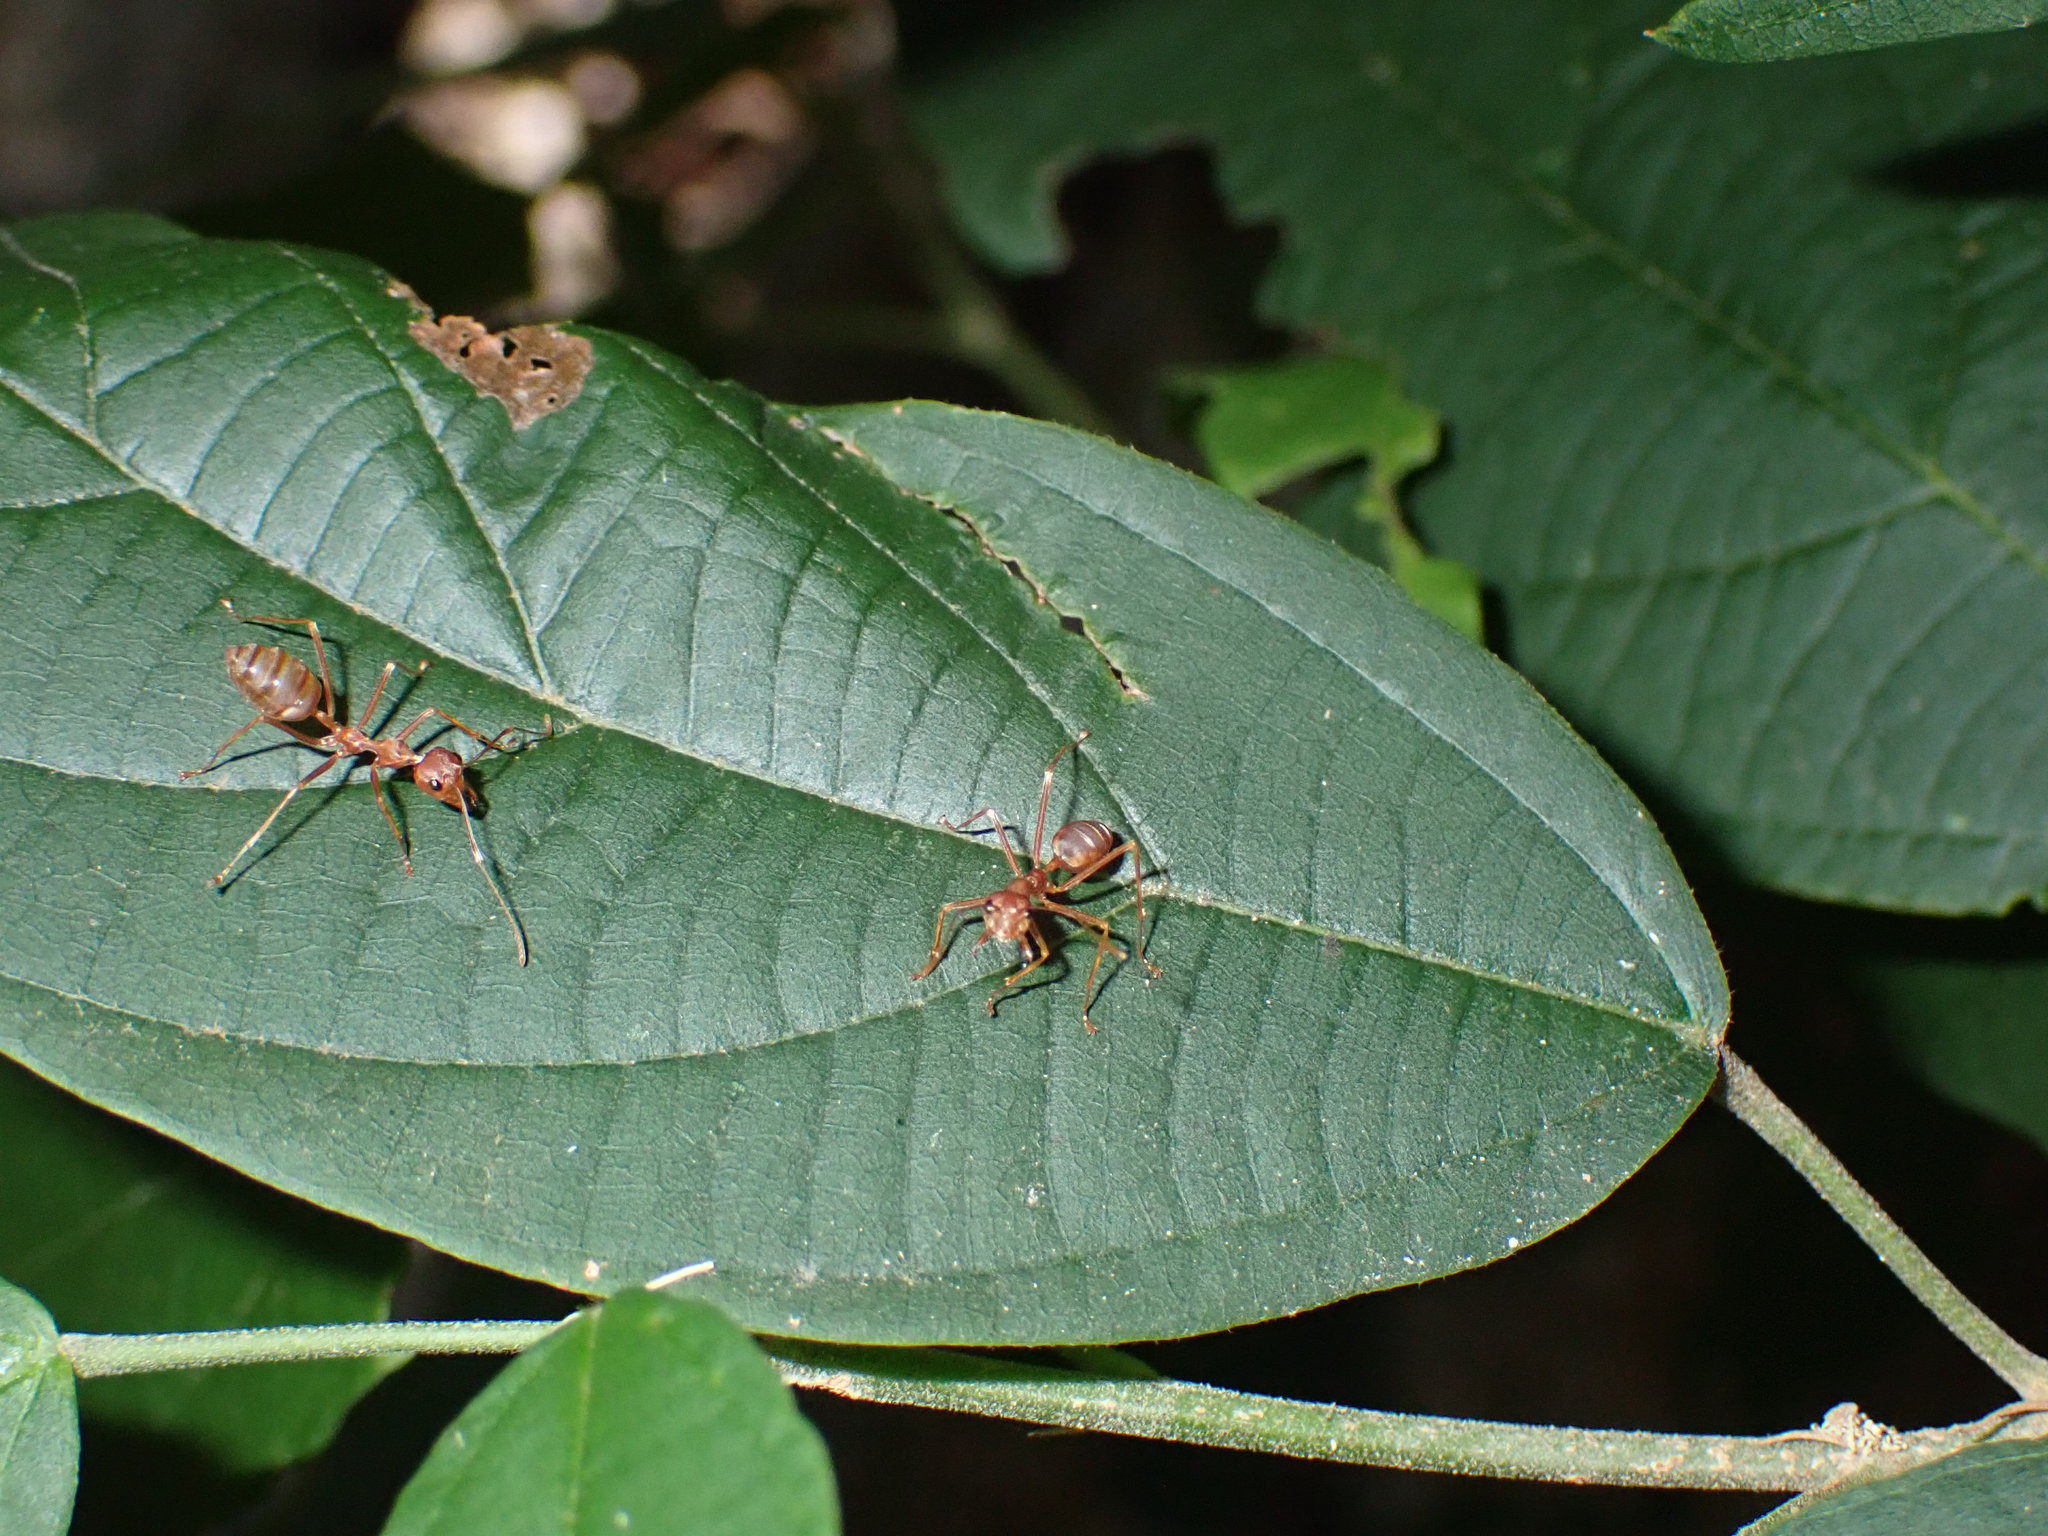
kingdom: Animalia
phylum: Arthropoda
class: Insecta
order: Hymenoptera
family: Formicidae
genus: Oecophylla
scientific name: Oecophylla smaragdina
